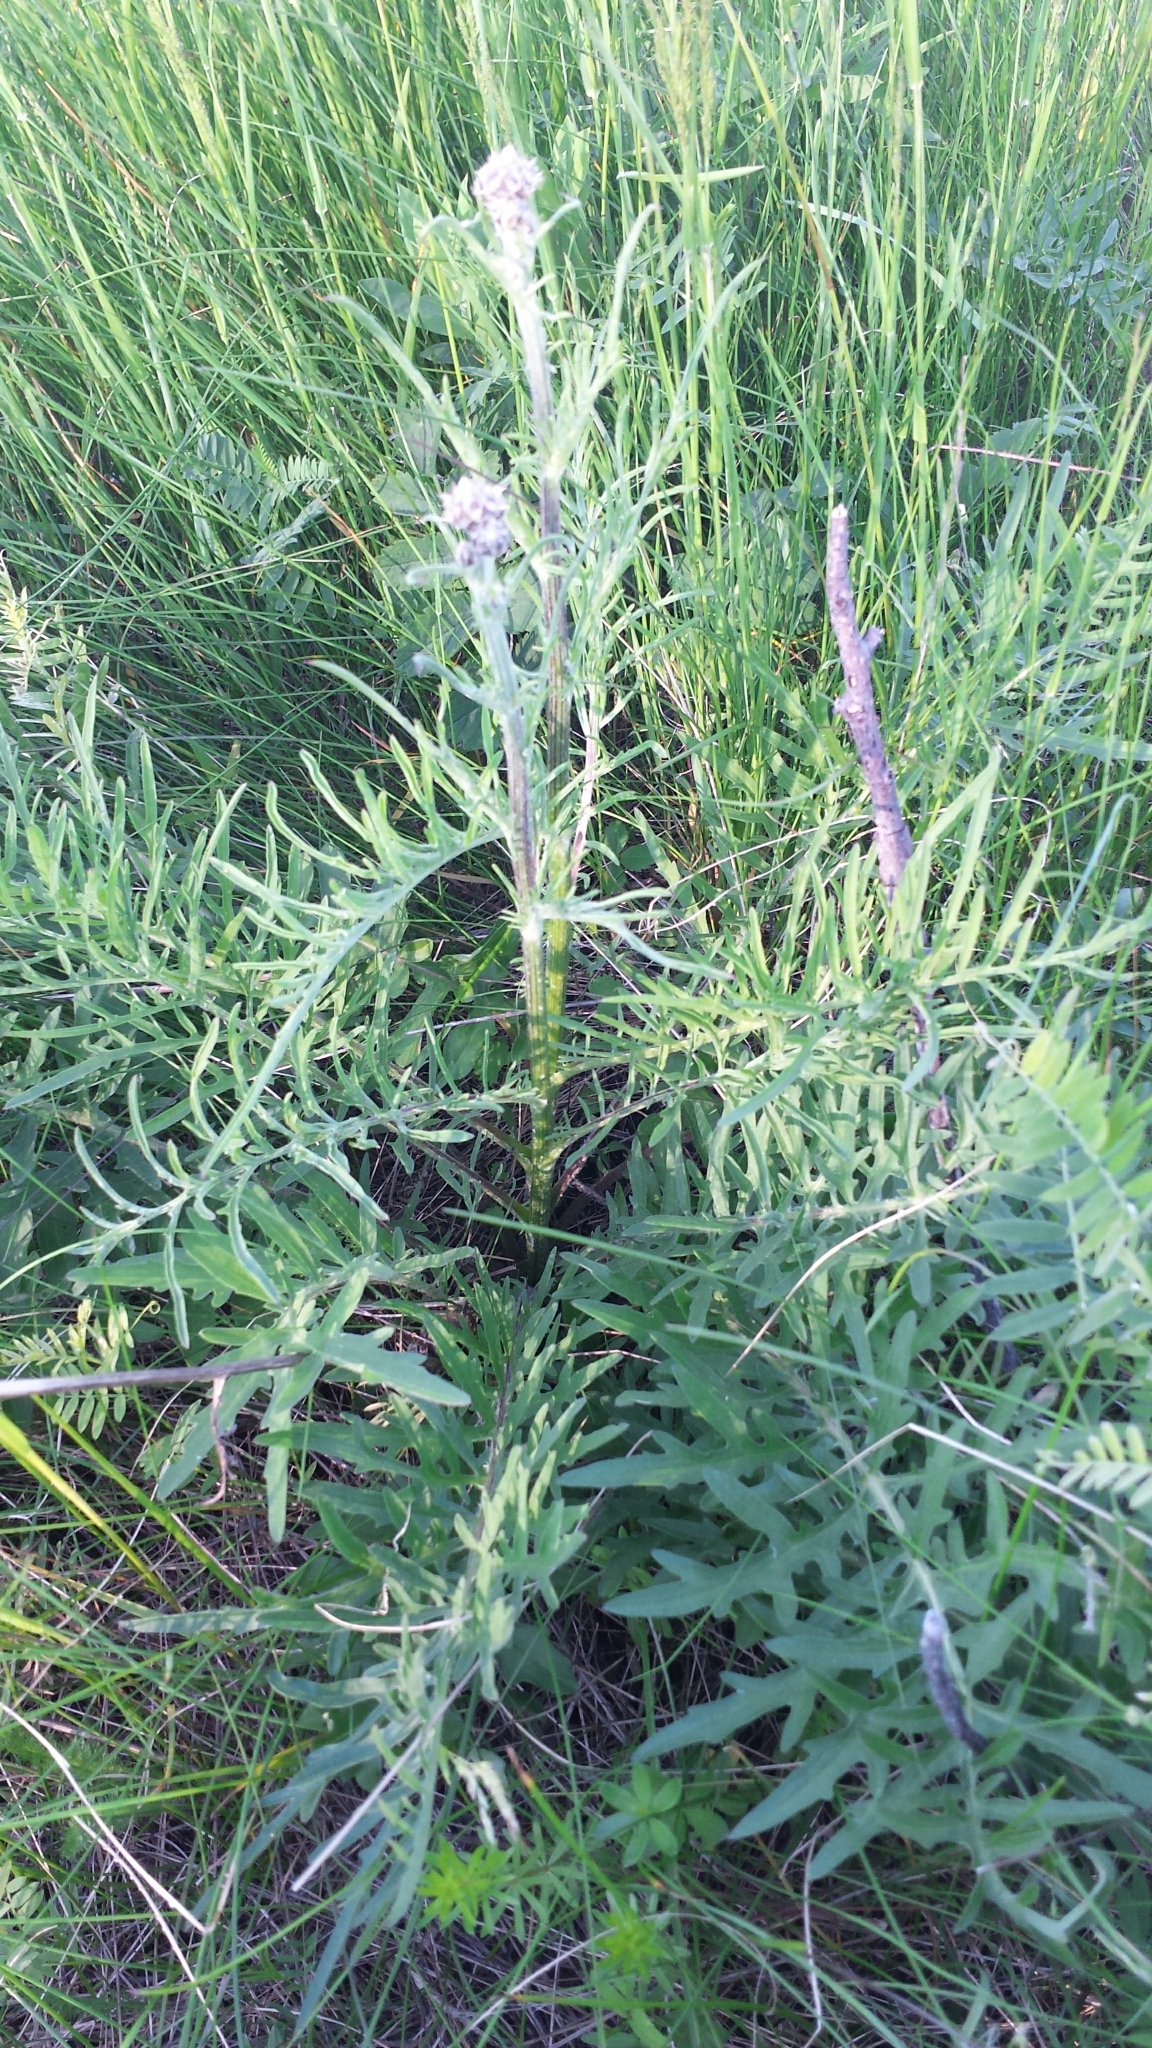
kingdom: Plantae
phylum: Tracheophyta
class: Magnoliopsida
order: Asterales
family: Asteraceae
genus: Centaurea
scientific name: Centaurea stoebe
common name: Spotted knapweed
